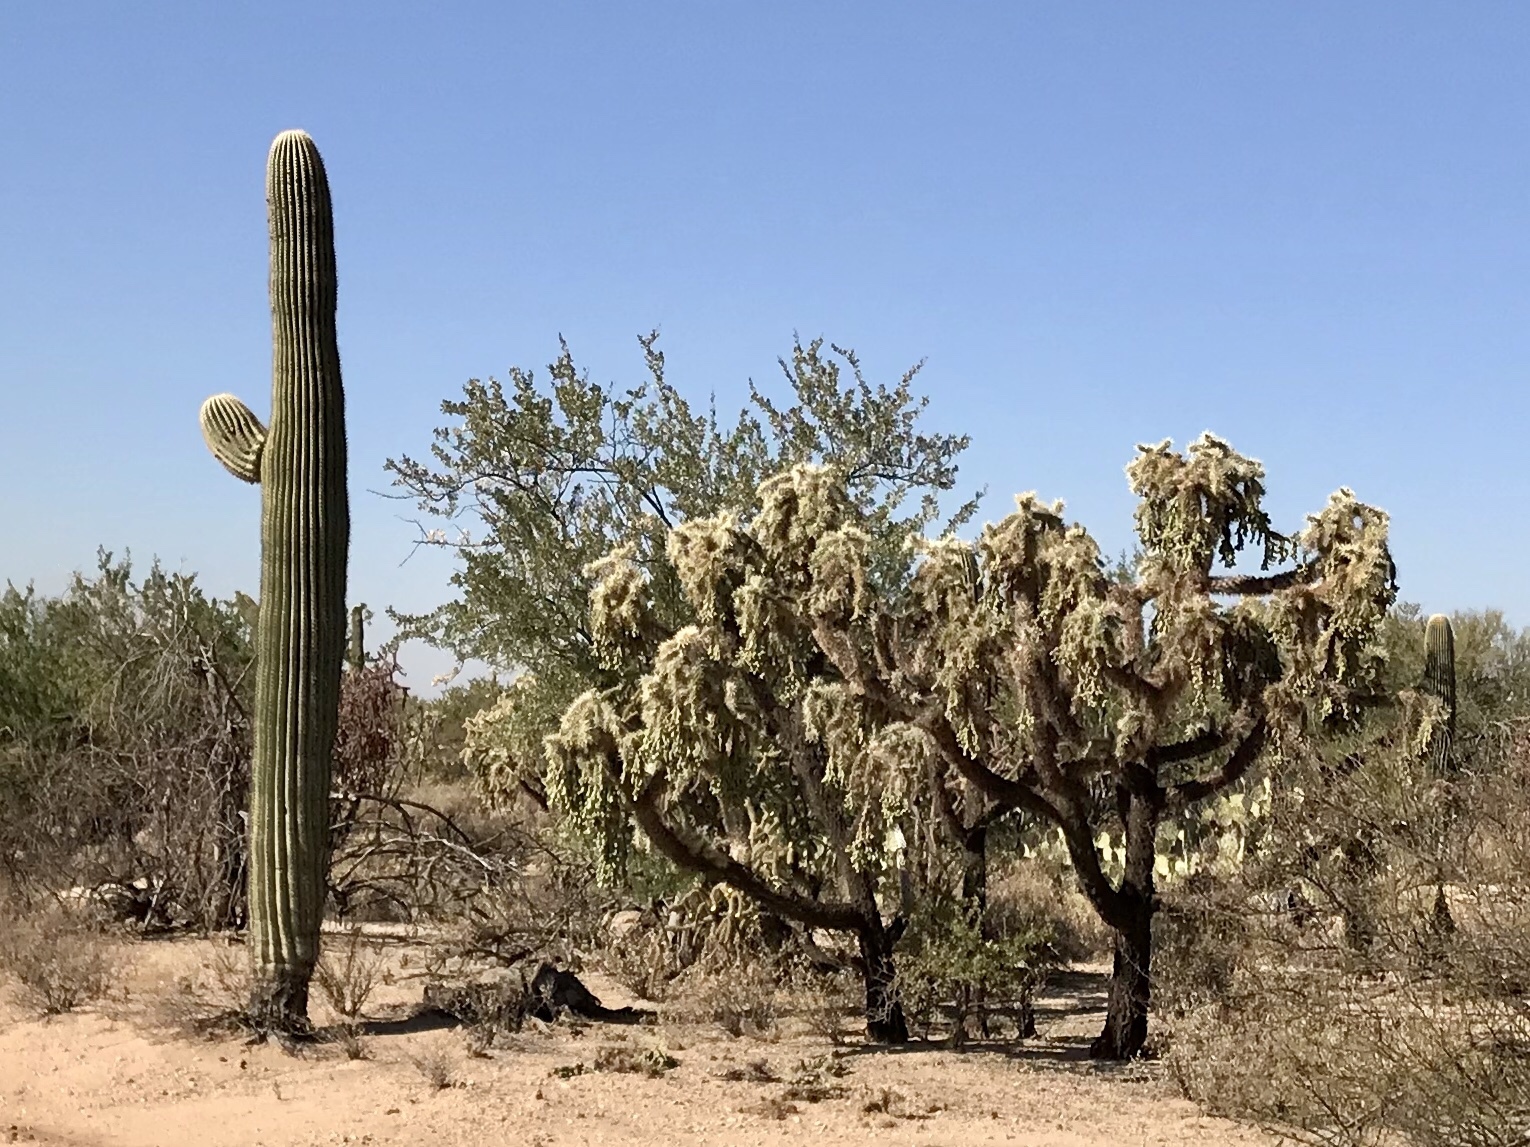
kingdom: Plantae
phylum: Tracheophyta
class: Magnoliopsida
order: Caryophyllales
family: Cactaceae
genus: Cylindropuntia
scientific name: Cylindropuntia fulgida
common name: Jumping cholla
